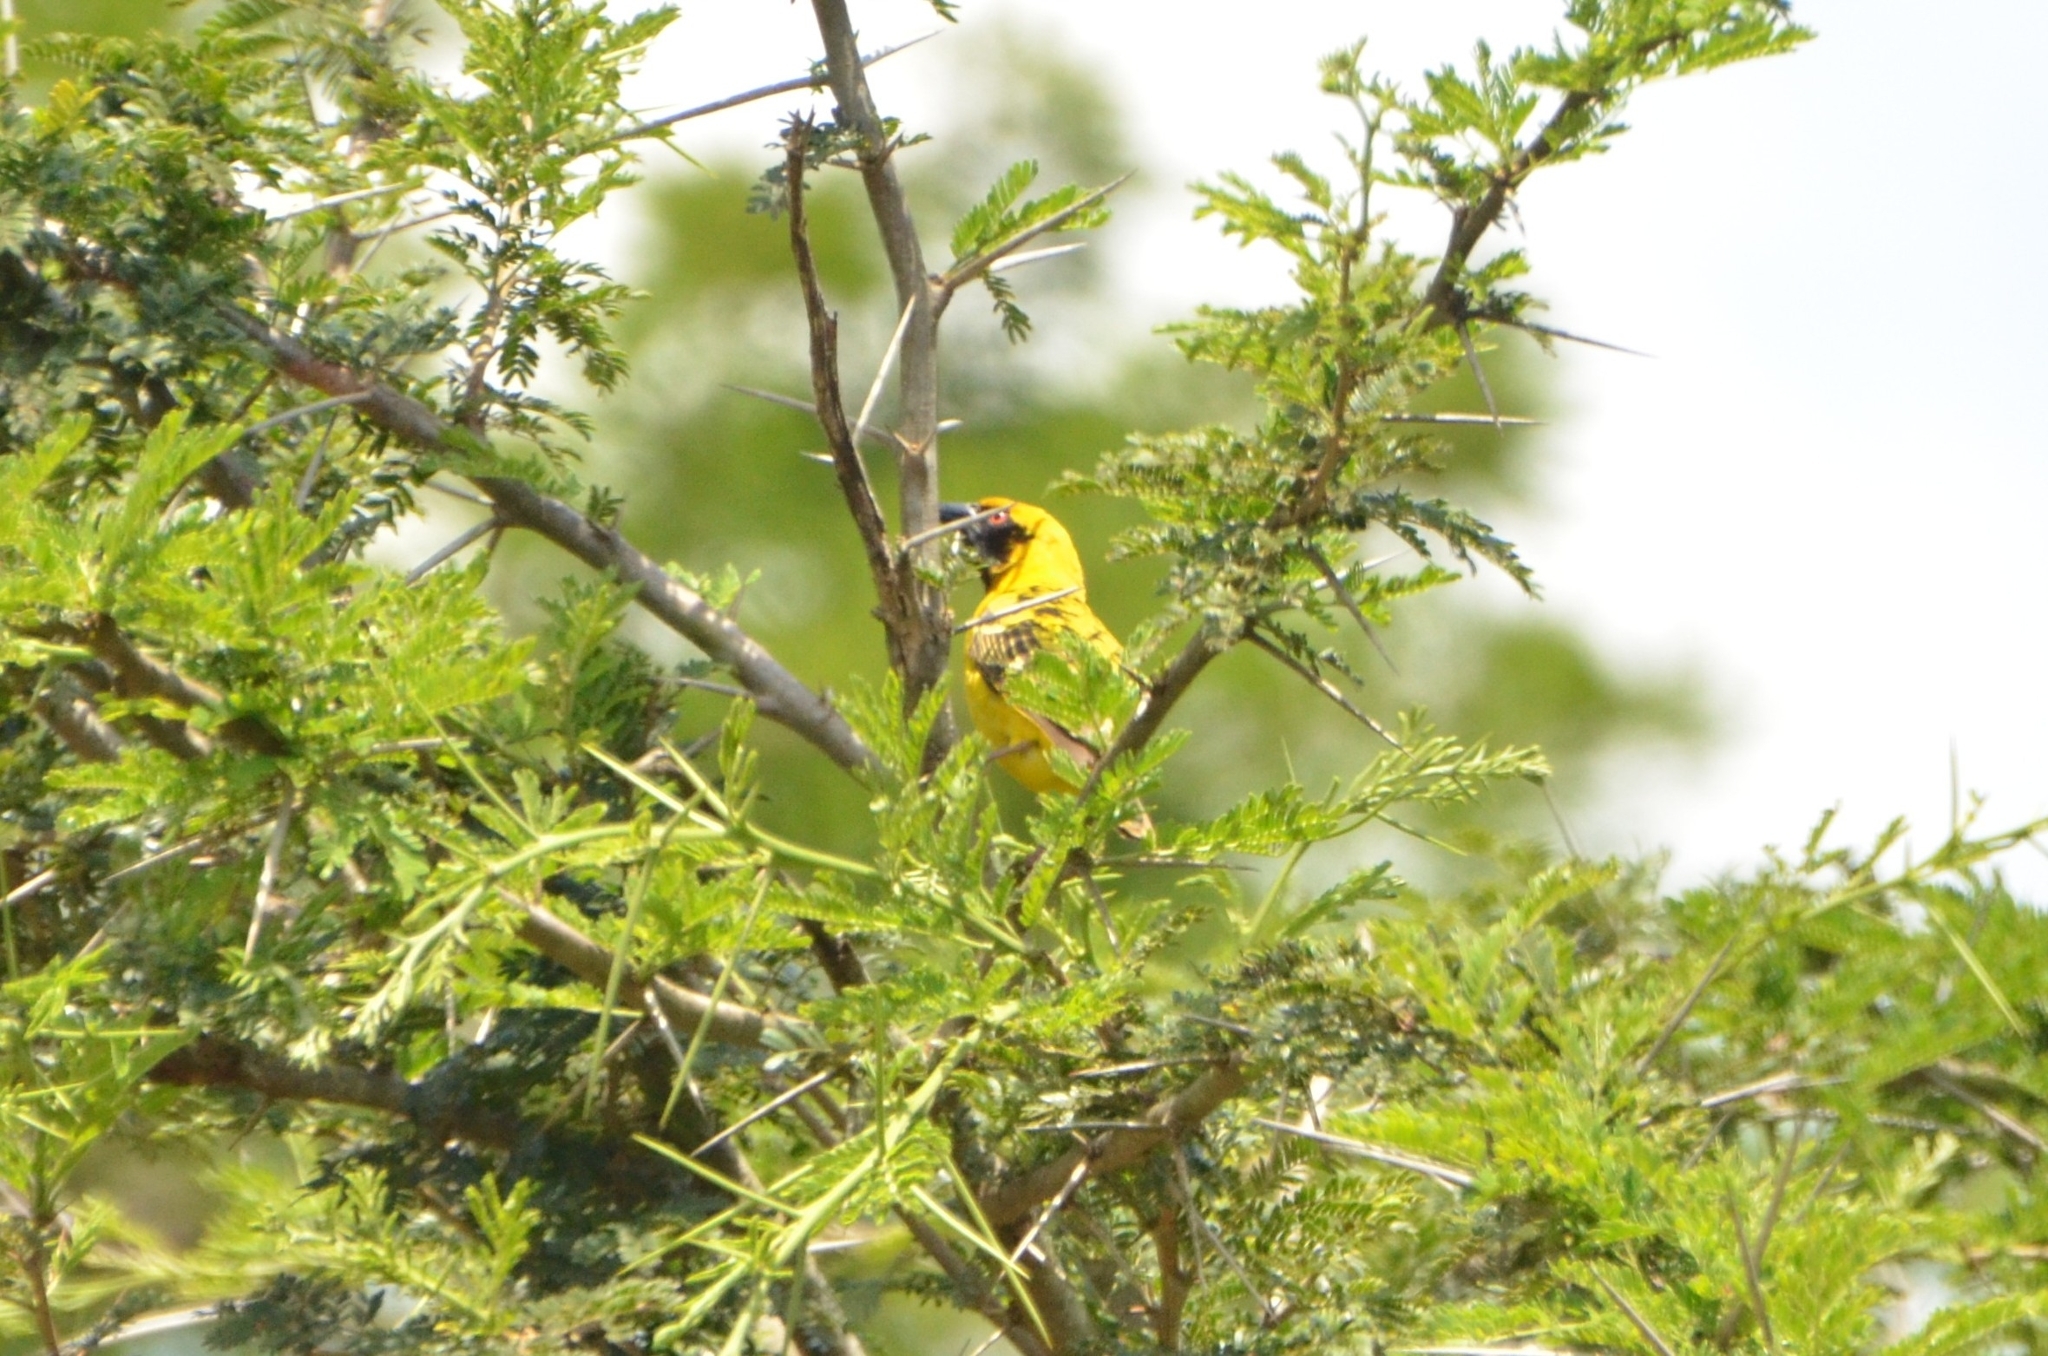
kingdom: Animalia
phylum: Chordata
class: Aves
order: Passeriformes
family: Ploceidae
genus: Ploceus
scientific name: Ploceus cucullatus
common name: Village weaver
